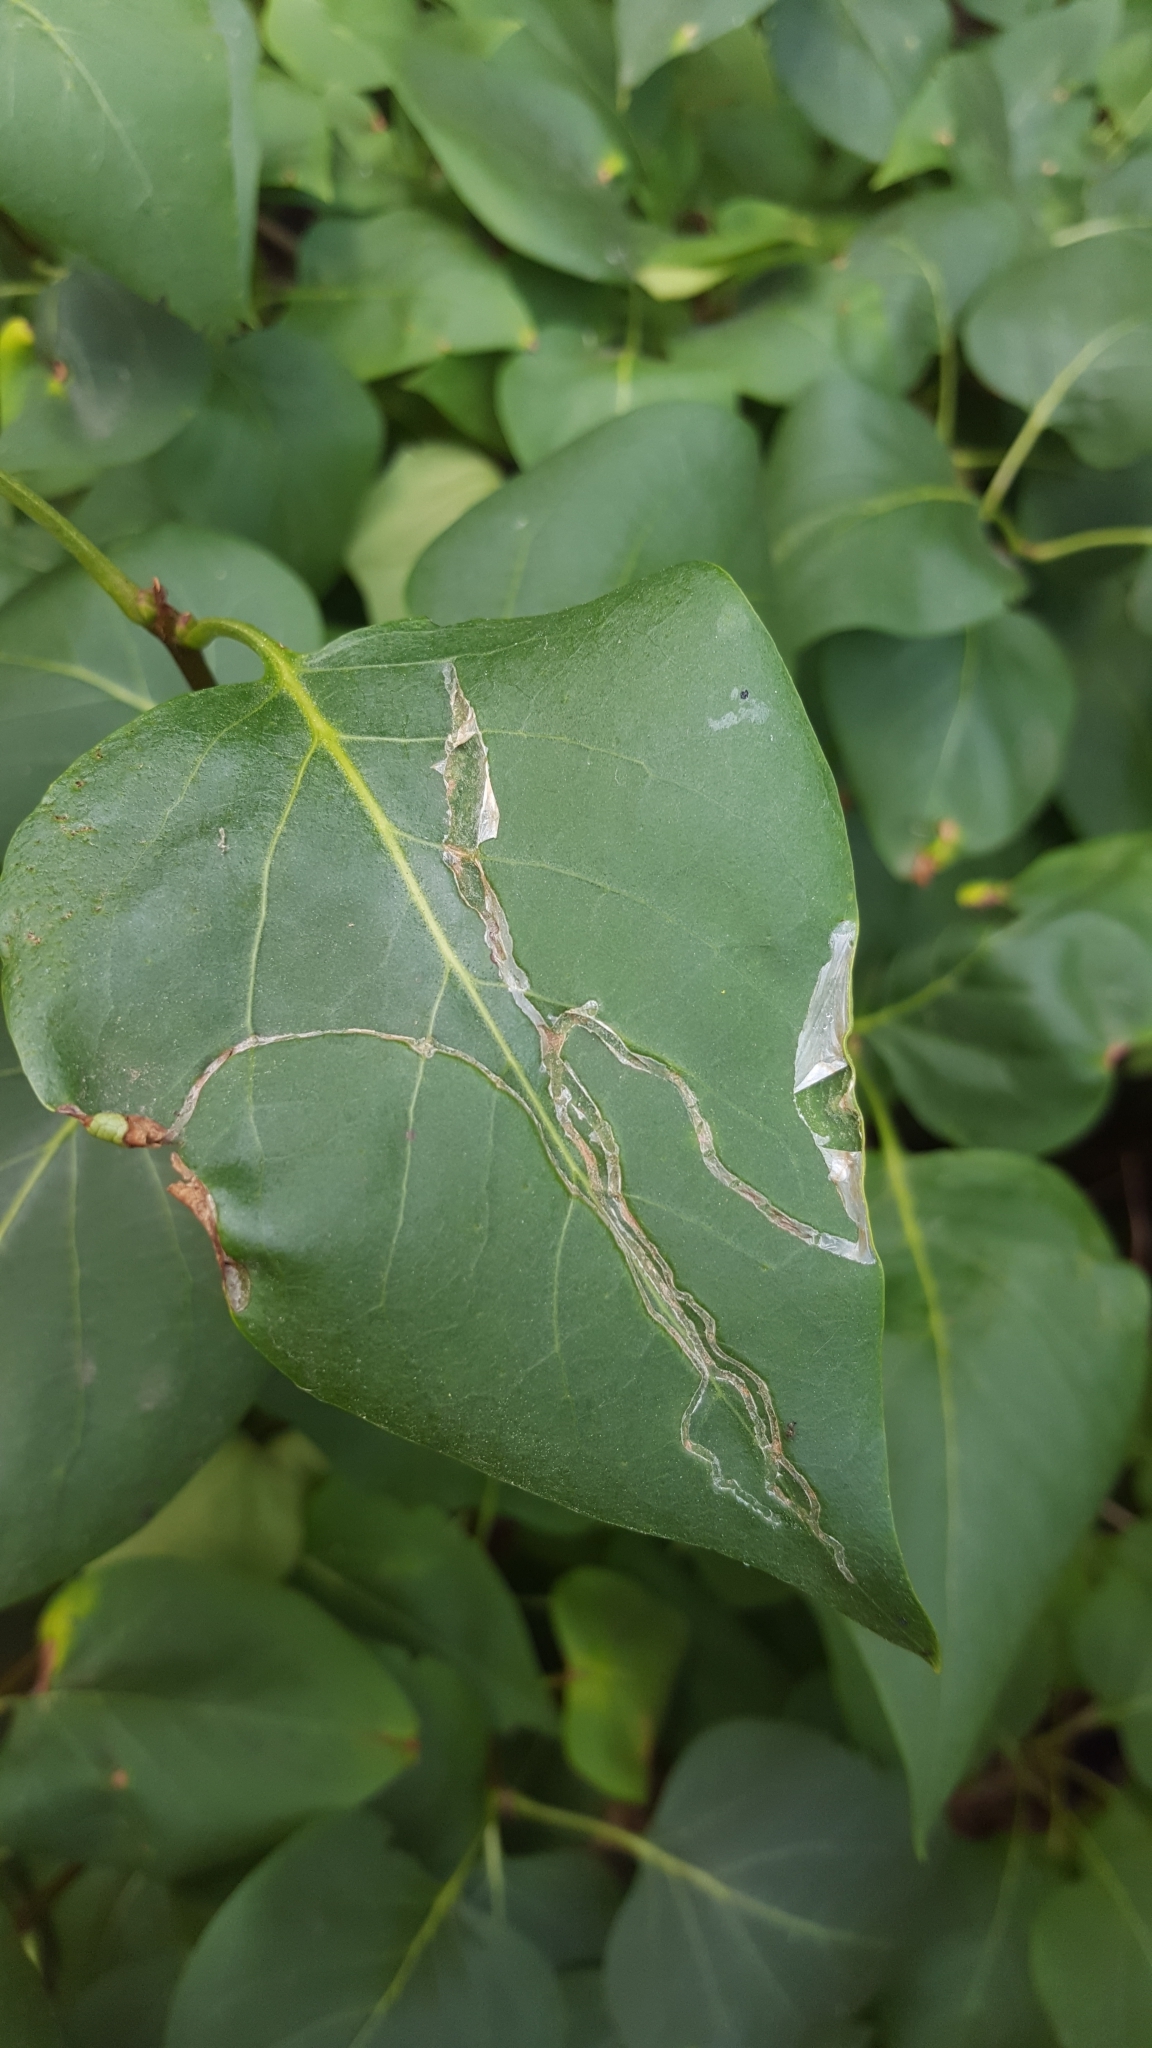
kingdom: Animalia
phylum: Arthropoda
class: Insecta
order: Lepidoptera
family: Gracillariidae
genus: Caloptilia
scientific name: Caloptilia cuculipennella
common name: Feathered slender
